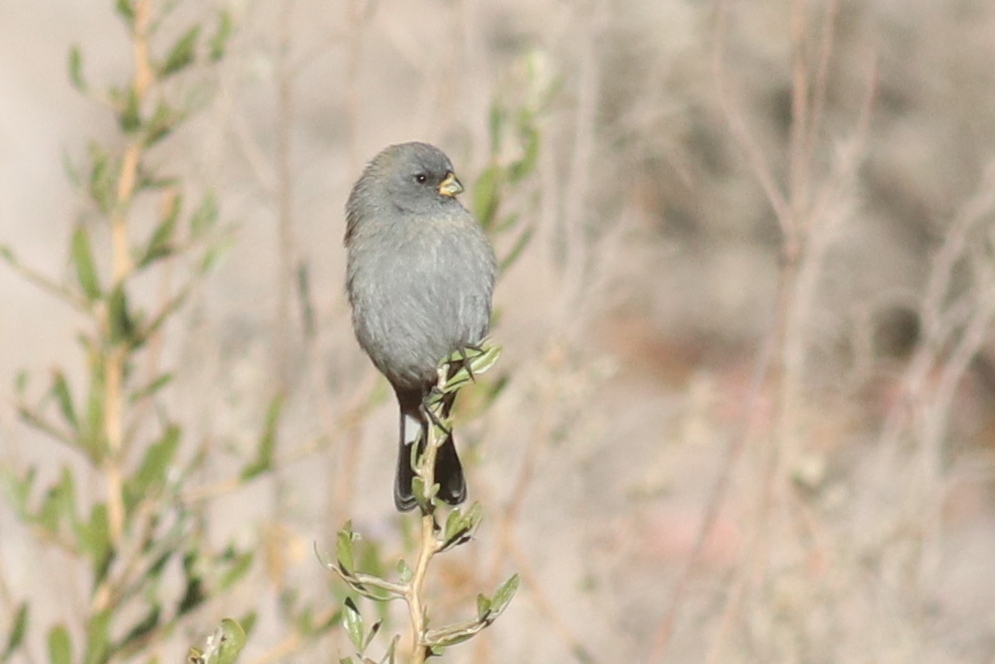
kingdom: Animalia
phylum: Chordata
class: Aves
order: Passeriformes
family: Thraupidae
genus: Catamenia
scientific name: Catamenia analis
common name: Band-tailed seedeater
